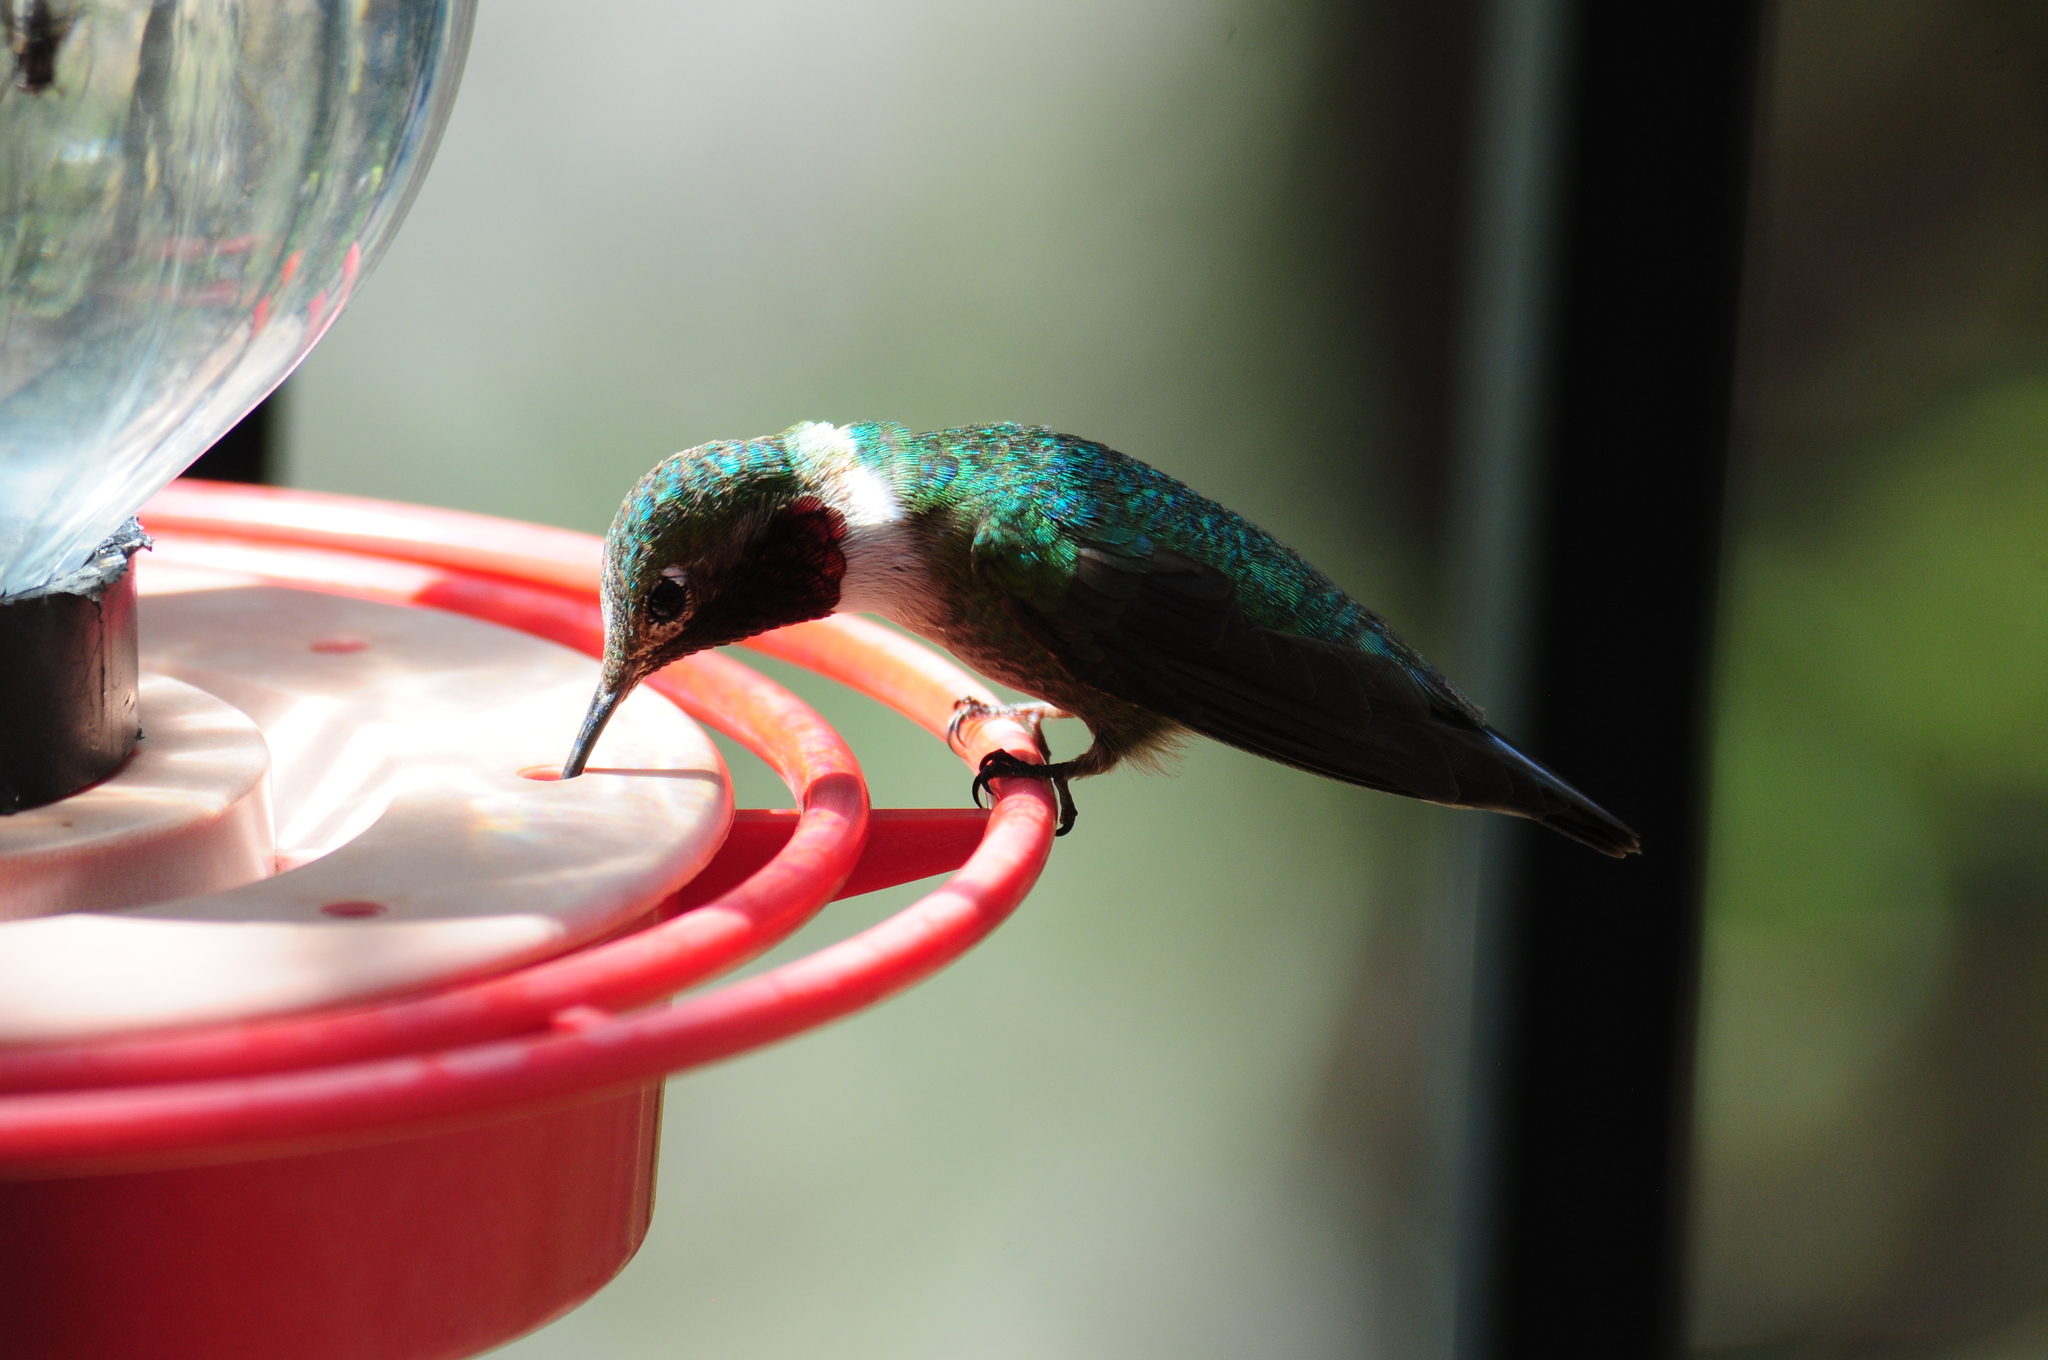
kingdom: Animalia
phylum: Chordata
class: Aves
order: Apodiformes
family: Trochilidae
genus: Selasphorus
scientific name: Selasphorus platycercus
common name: Broad-tailed hummingbird
